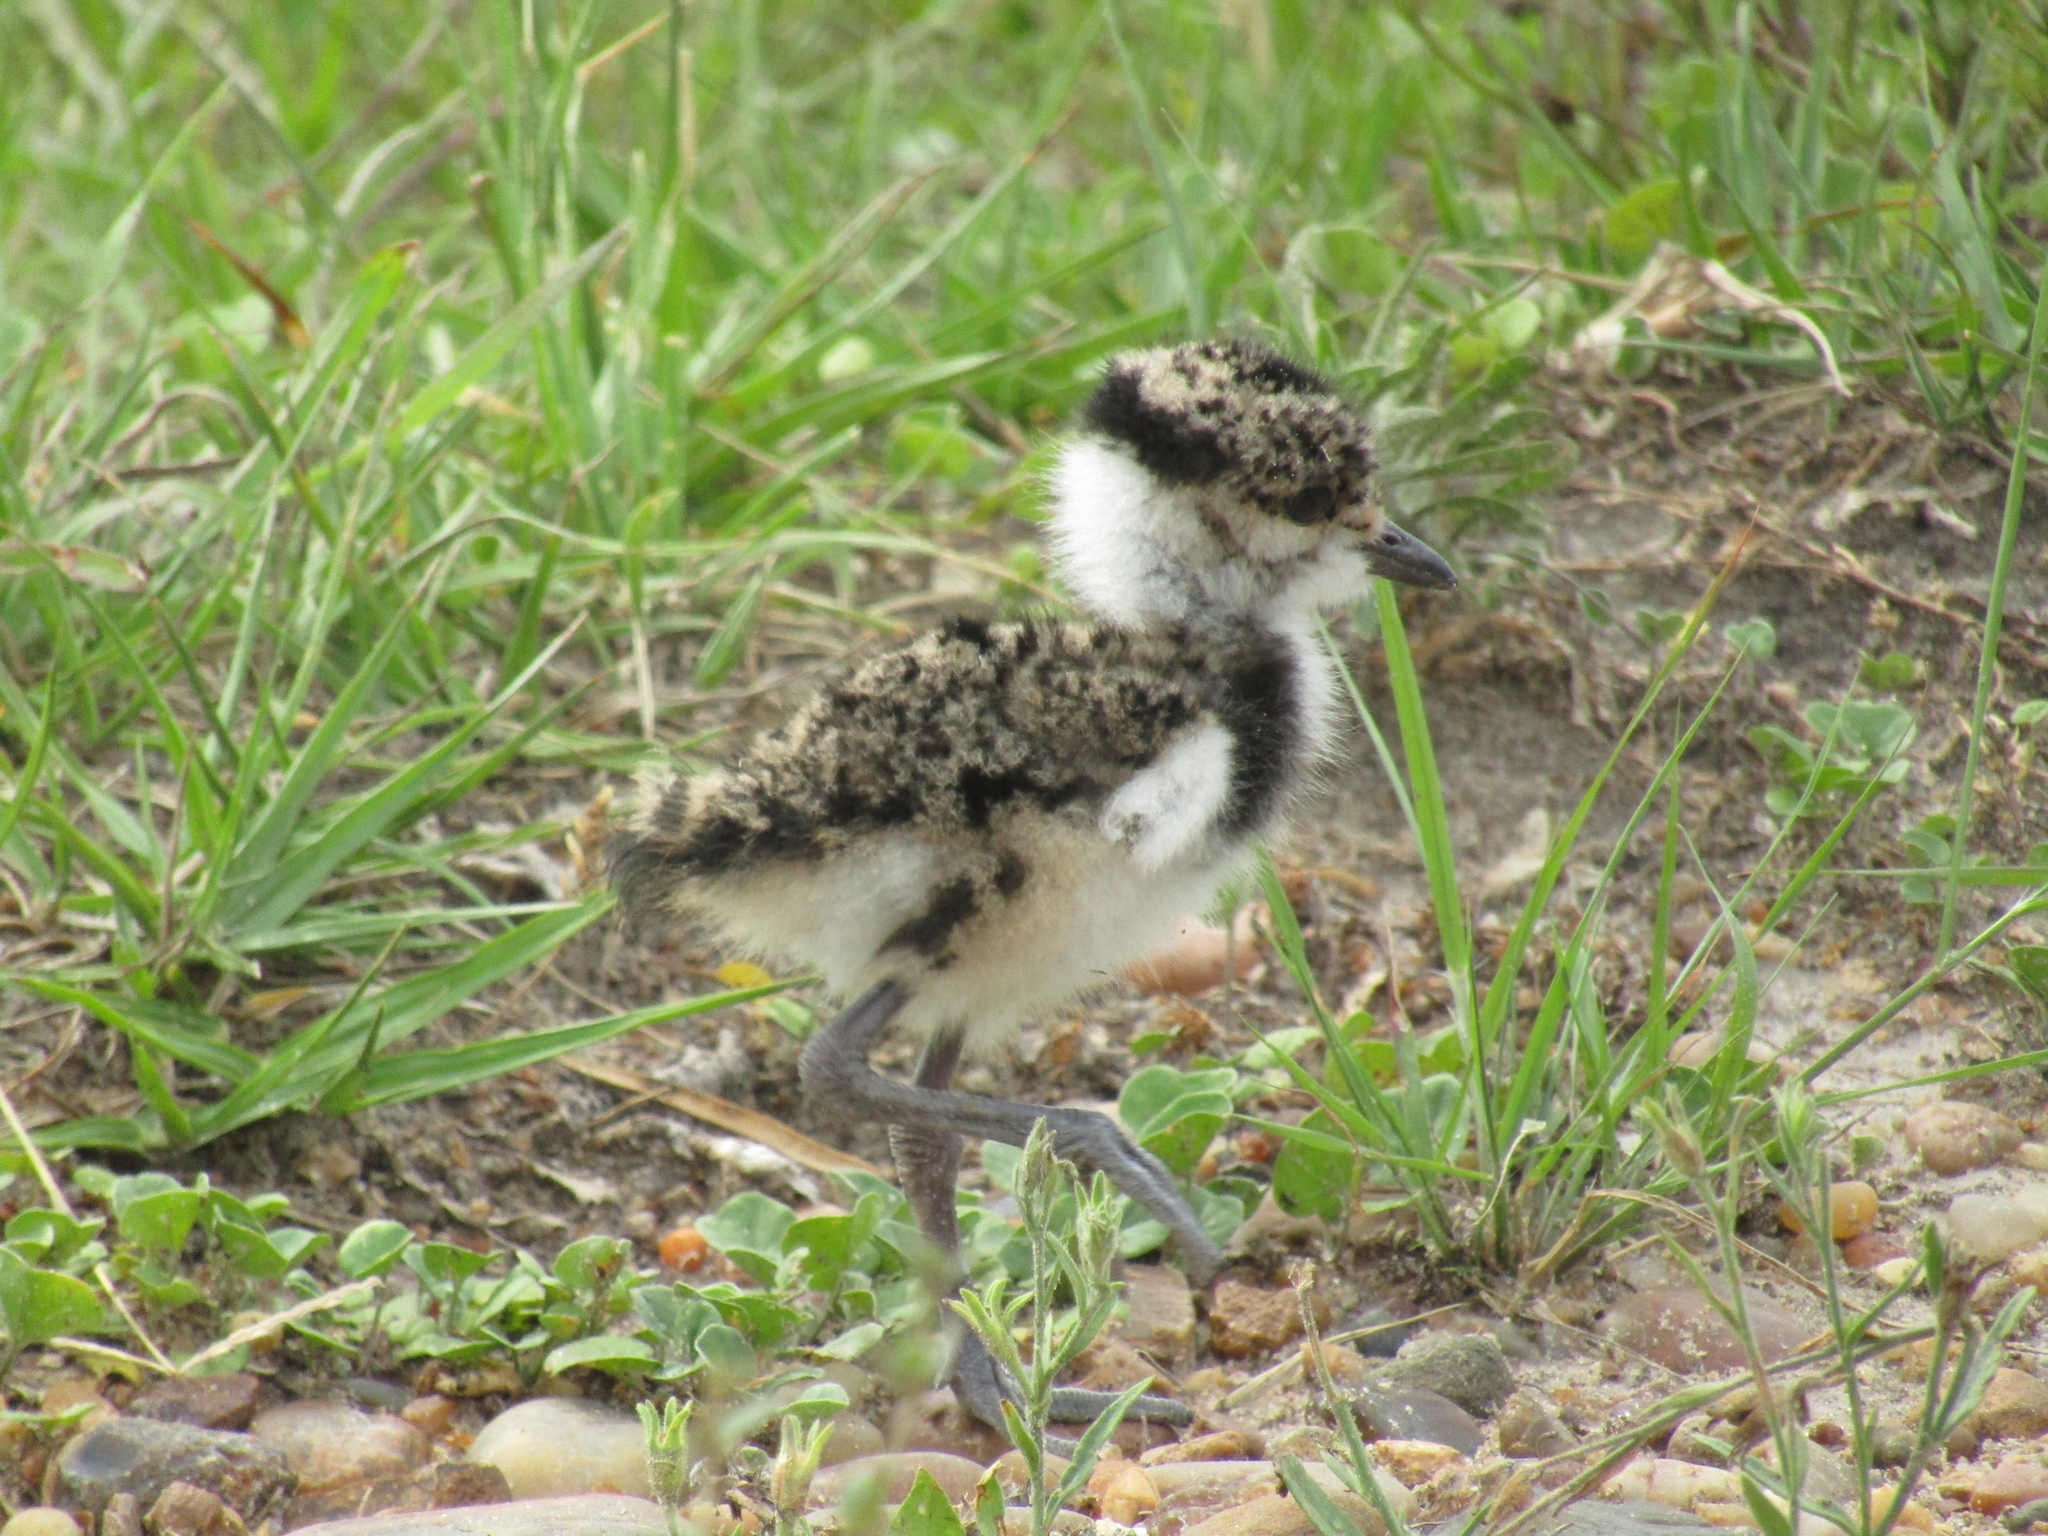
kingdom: Animalia
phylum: Chordata
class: Aves
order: Charadriiformes
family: Charadriidae
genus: Vanellus
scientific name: Vanellus chilensis
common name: Southern lapwing
